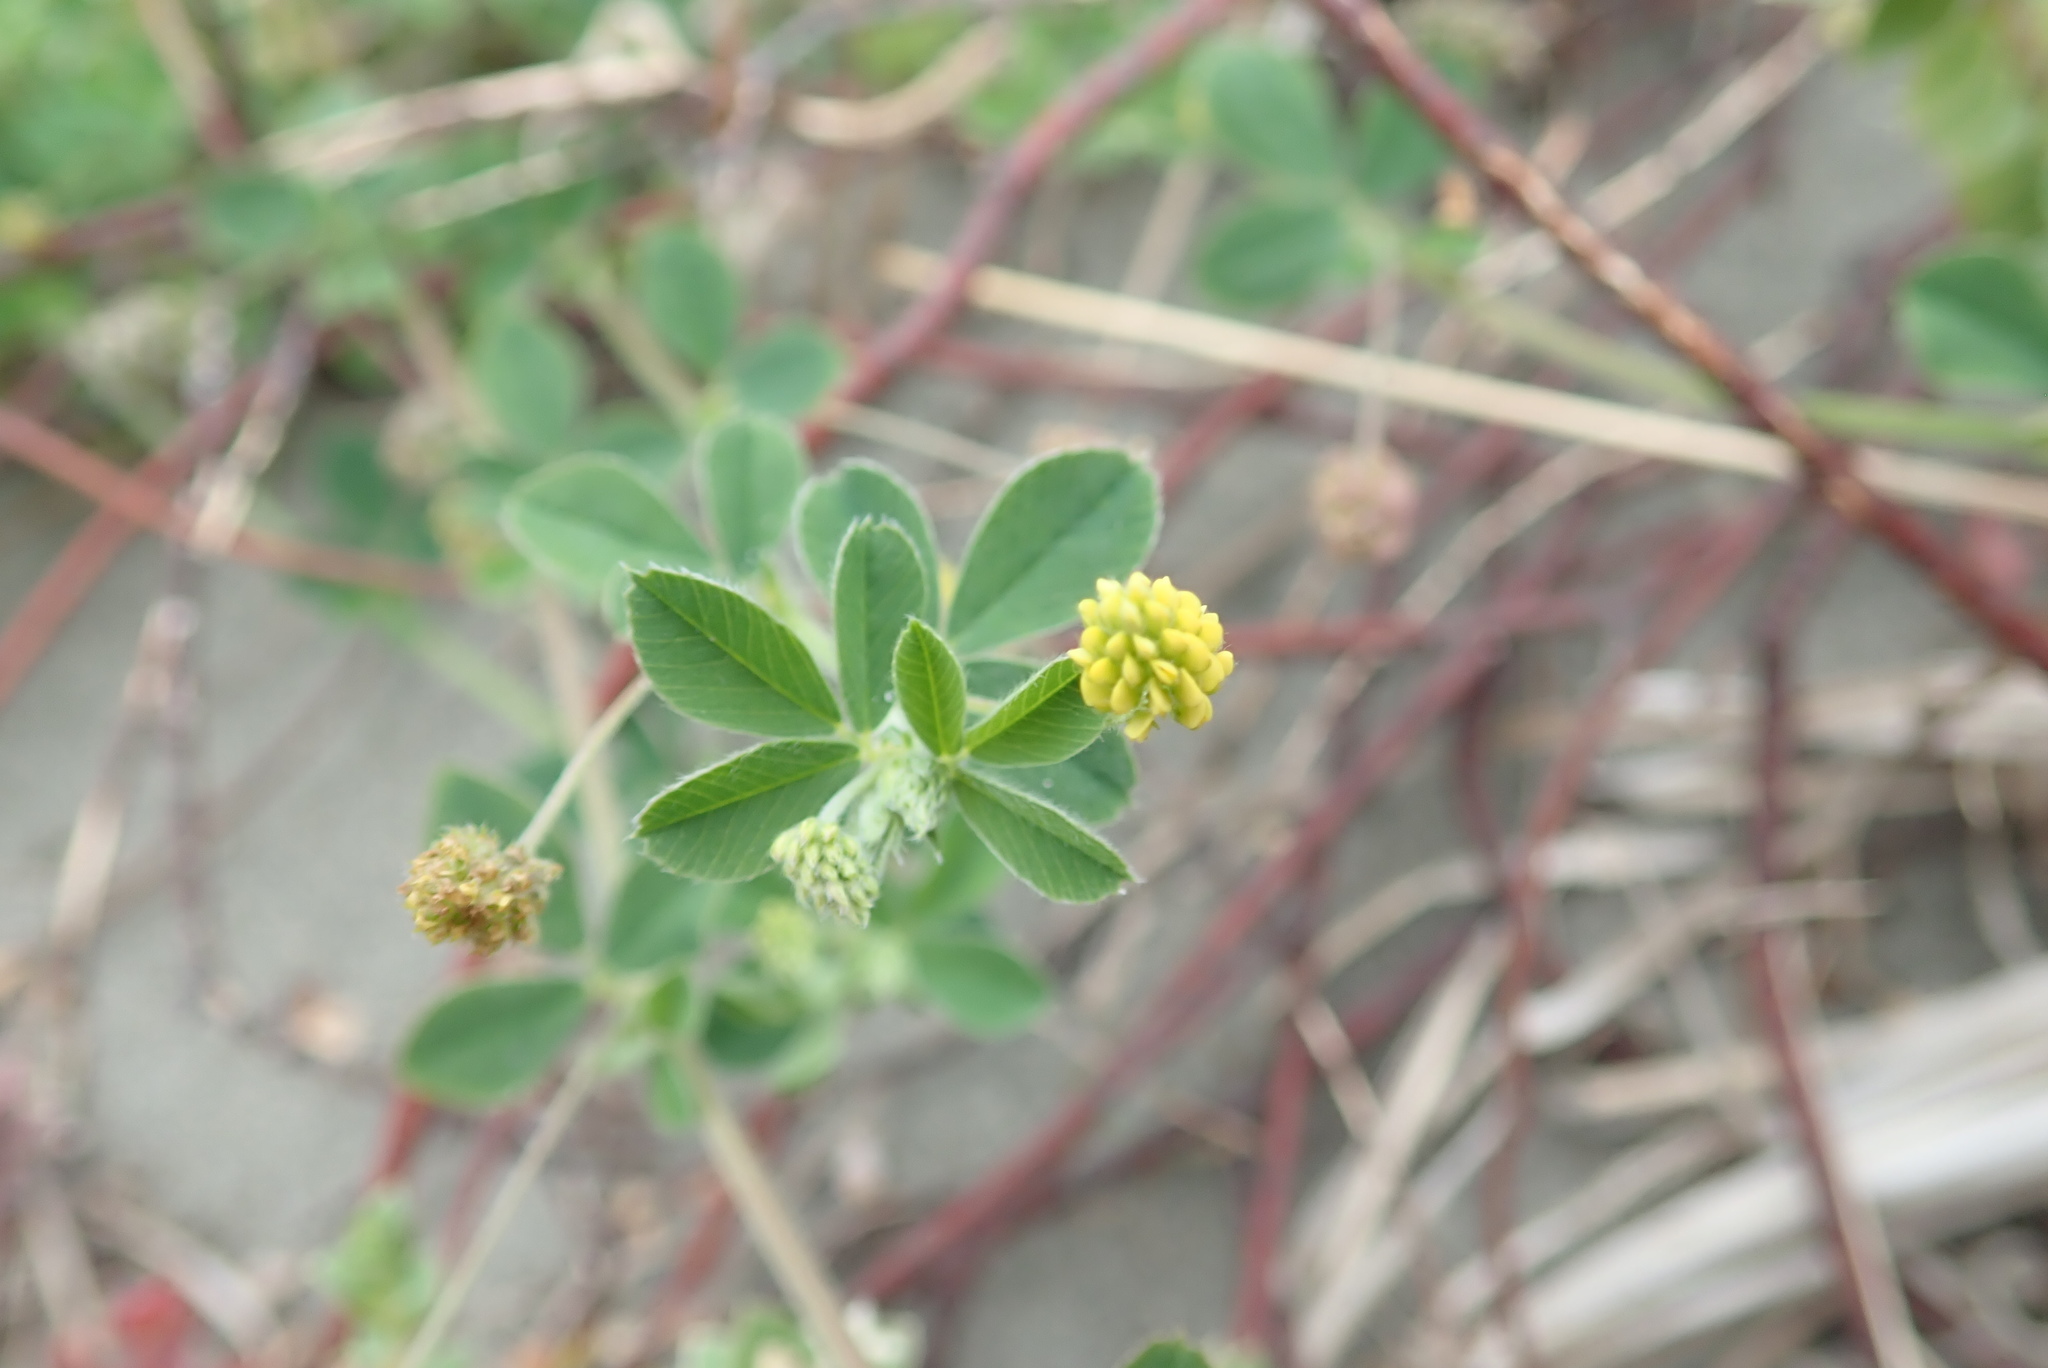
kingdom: Plantae
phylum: Tracheophyta
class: Magnoliopsida
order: Fabales
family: Fabaceae
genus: Medicago
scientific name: Medicago lupulina
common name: Black medick
